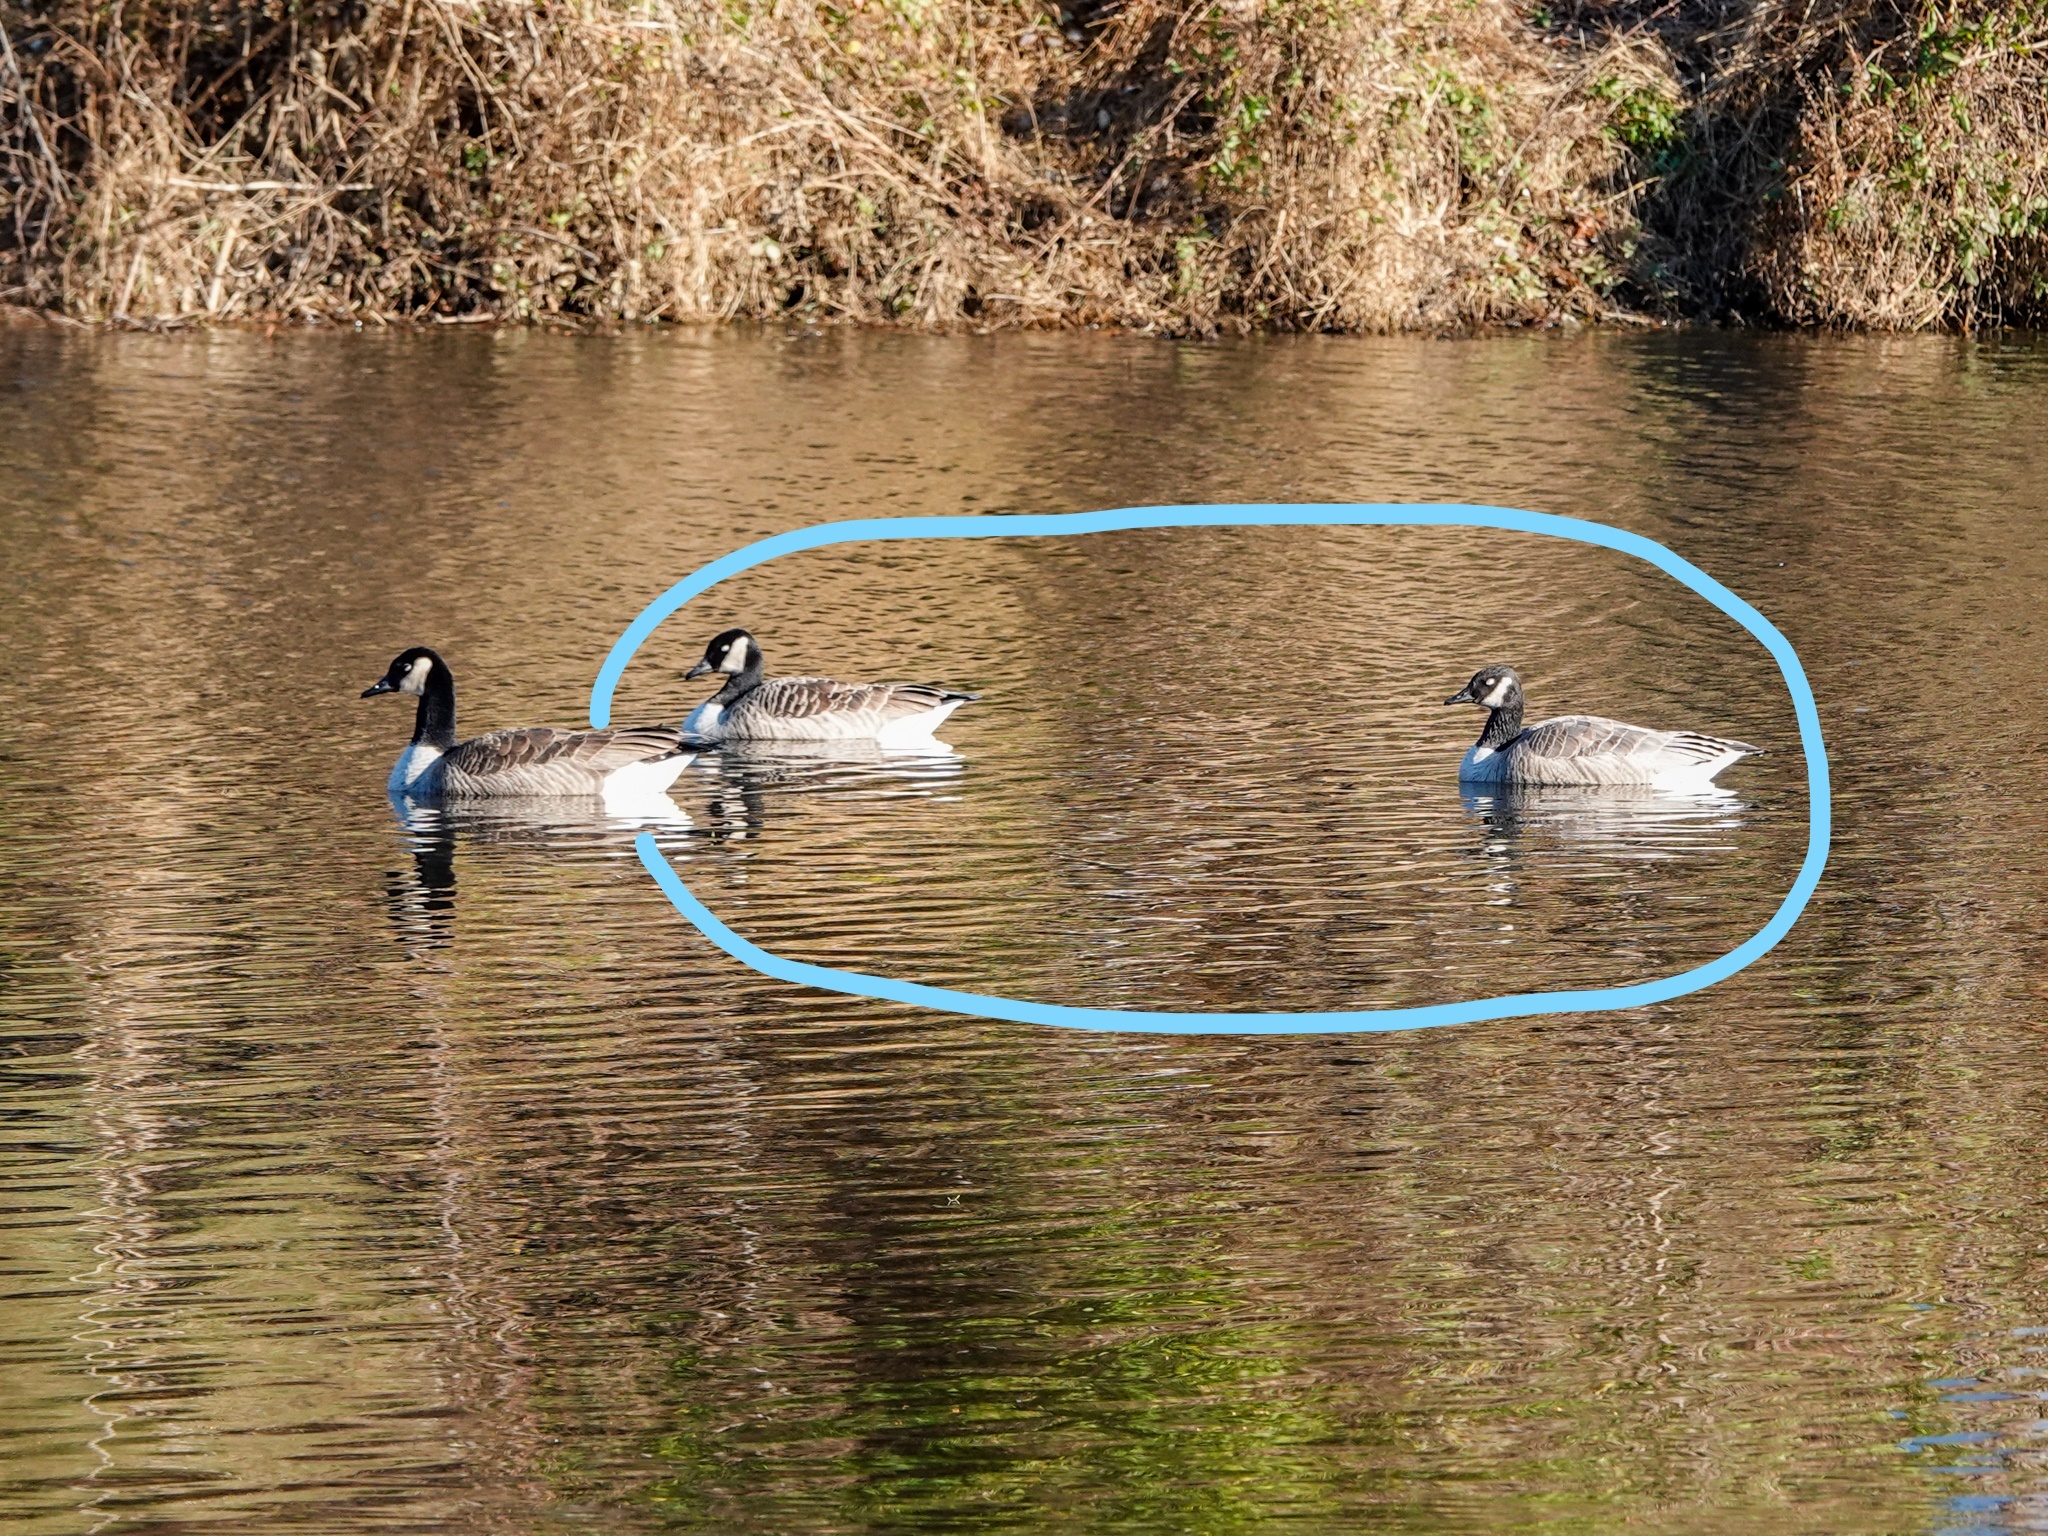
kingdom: Animalia
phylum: Chordata
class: Aves
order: Anseriformes
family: Anatidae
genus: Branta
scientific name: Branta canadensis
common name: Canada goose
